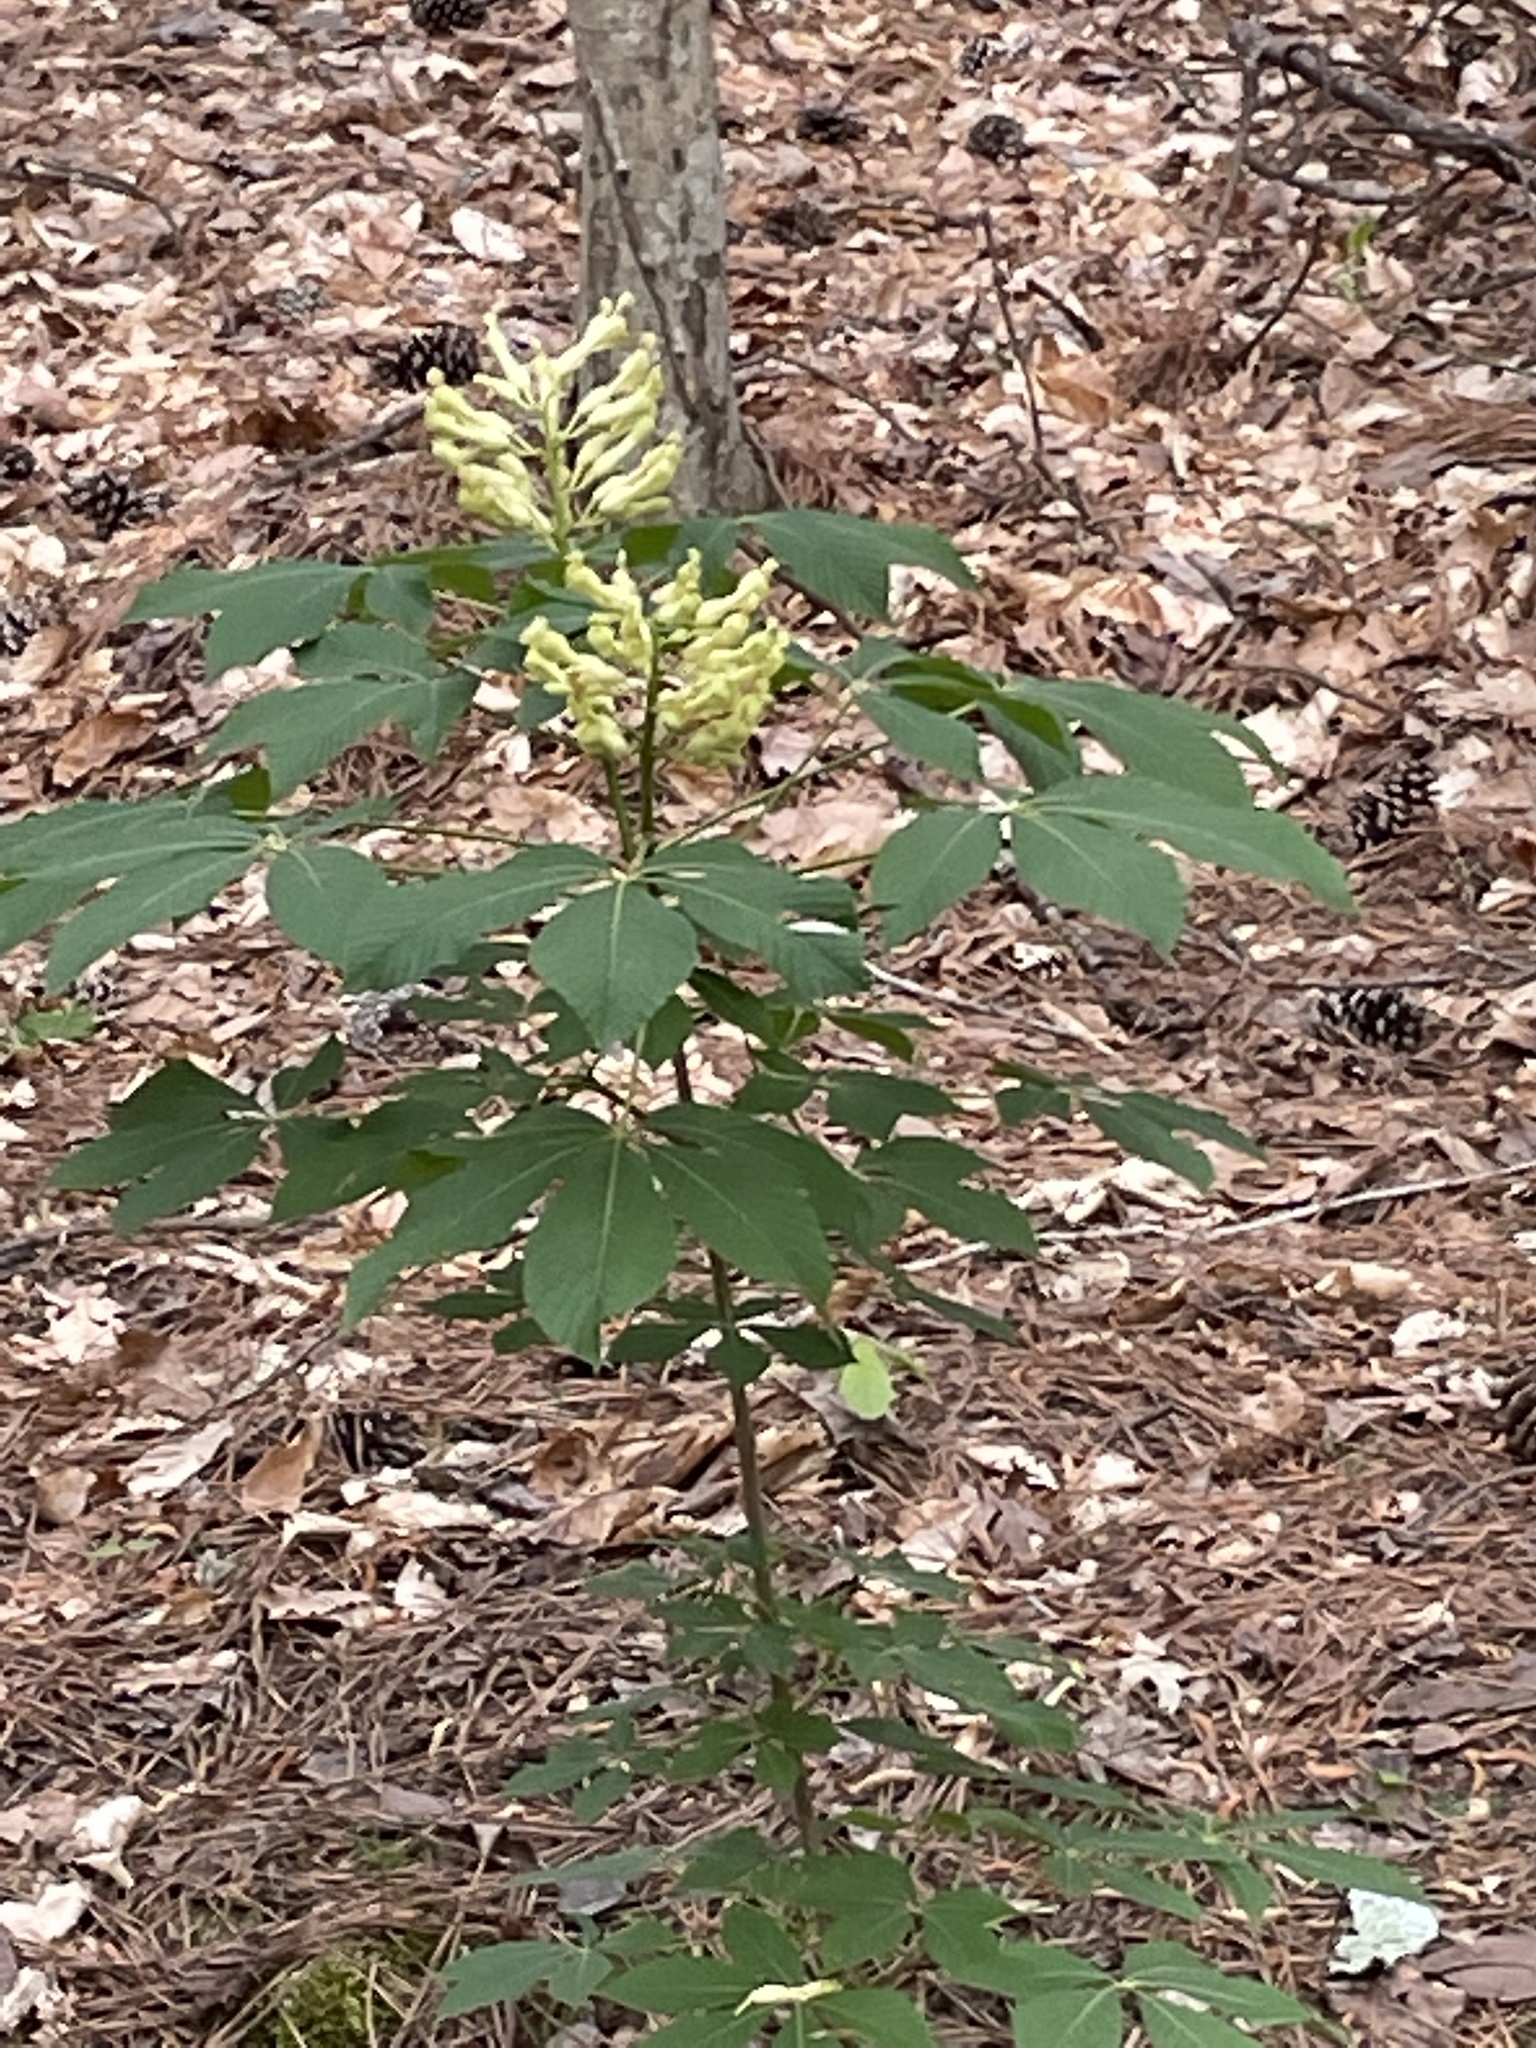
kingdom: Plantae
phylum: Tracheophyta
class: Magnoliopsida
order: Sapindales
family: Sapindaceae
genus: Aesculus
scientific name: Aesculus sylvatica
